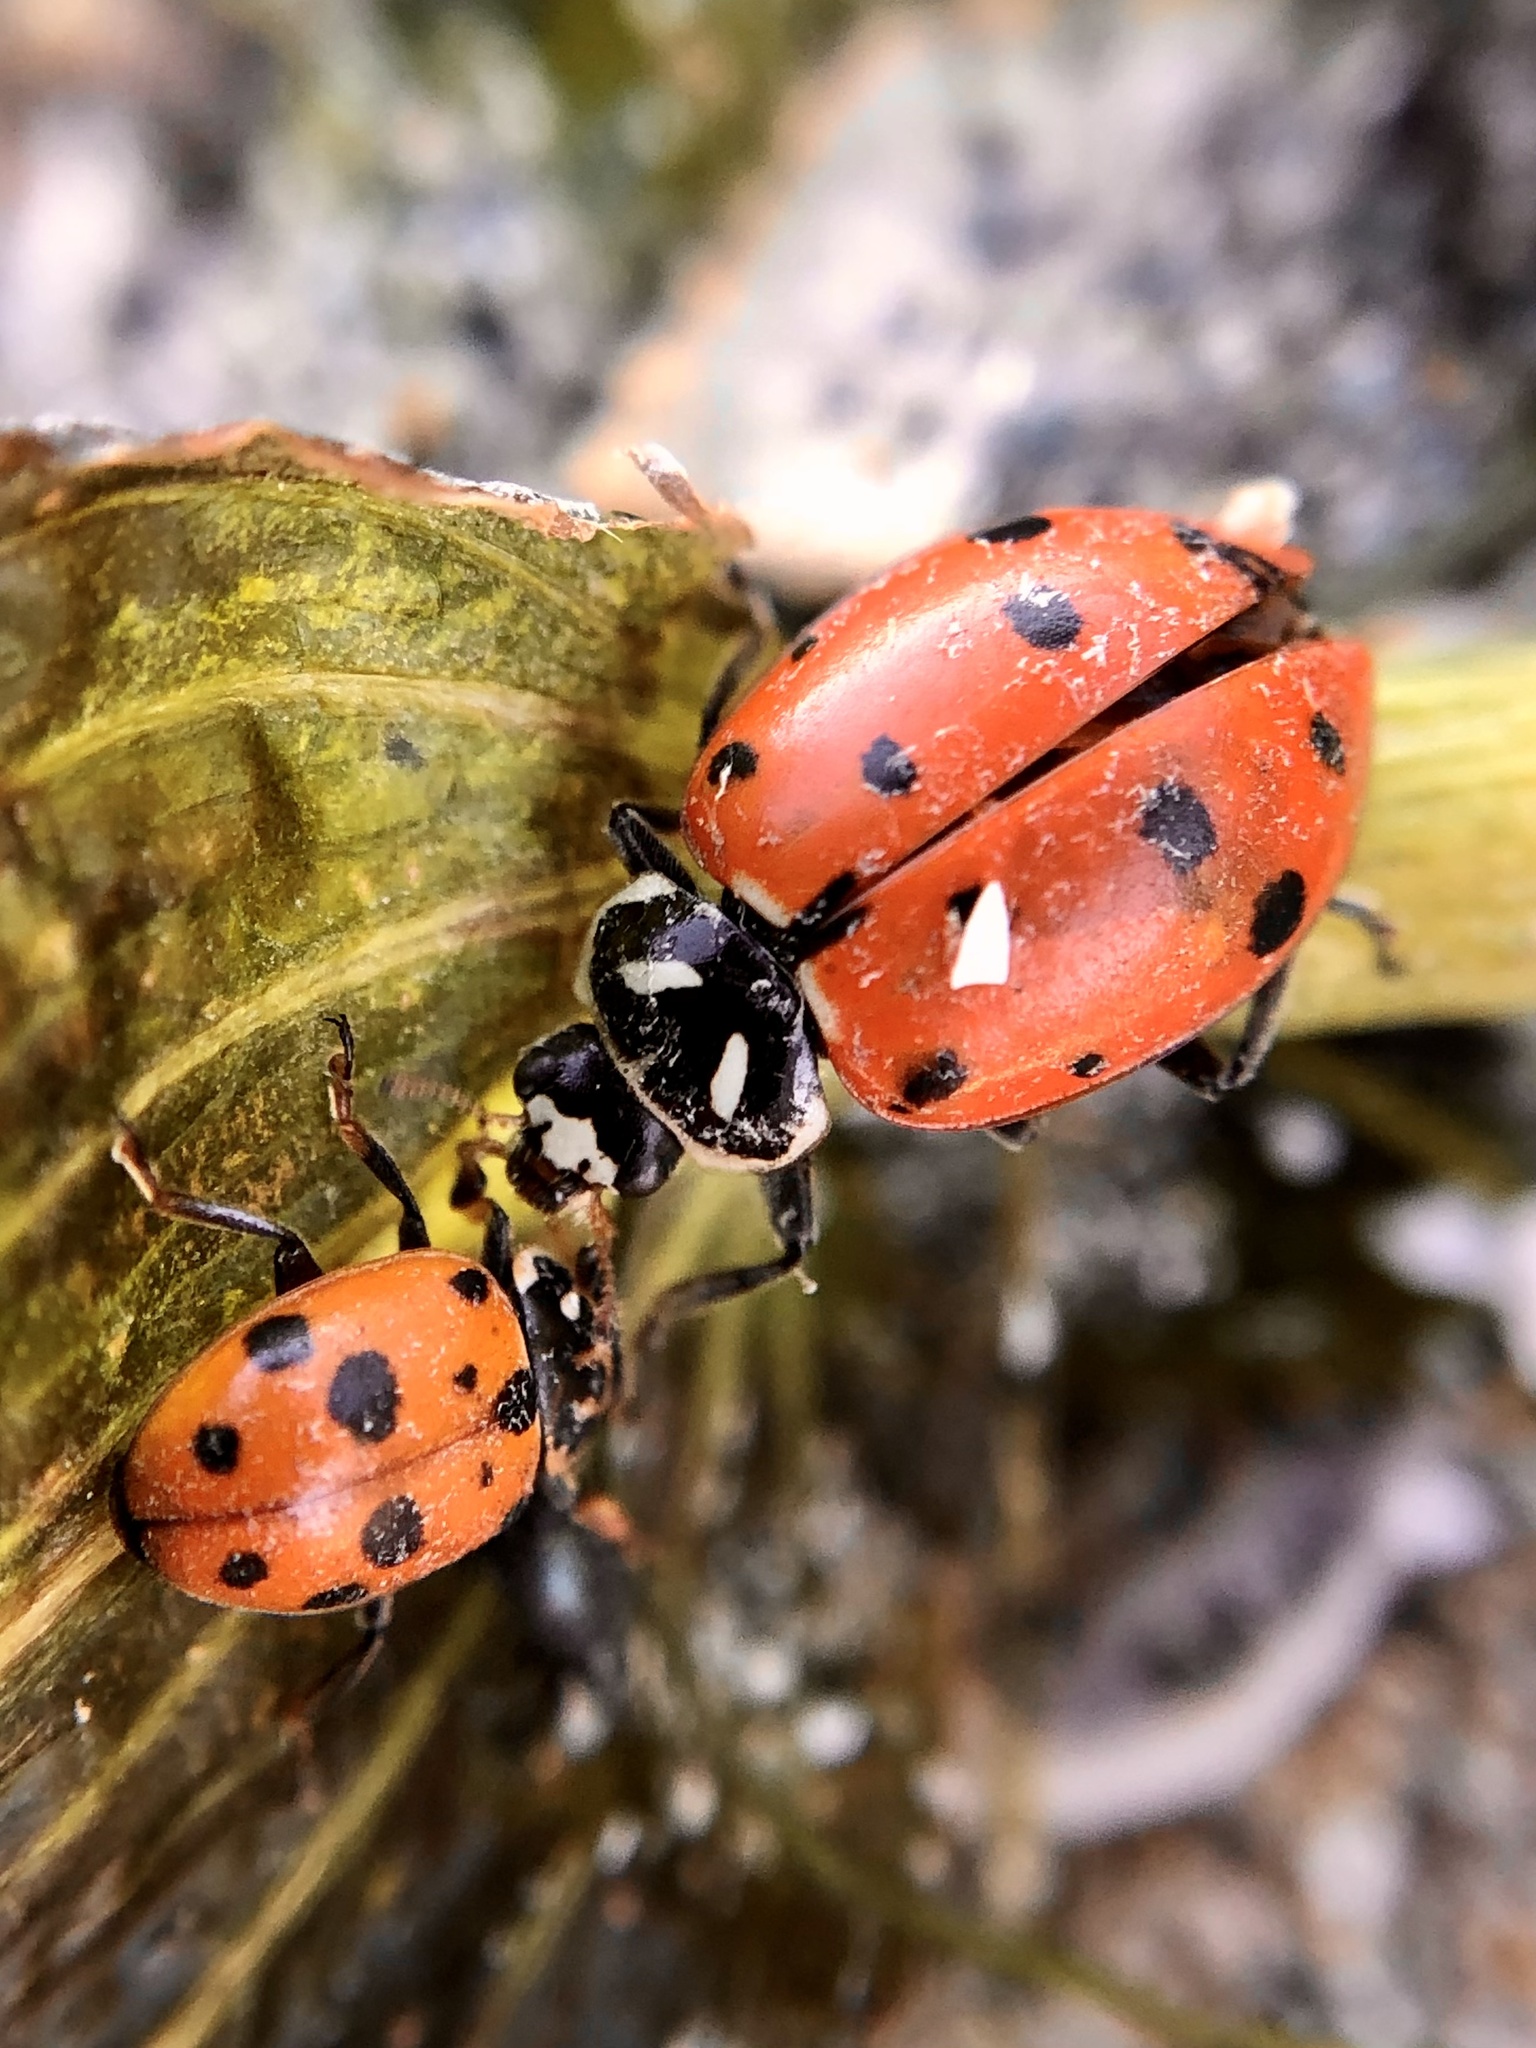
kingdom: Animalia
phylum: Arthropoda
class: Insecta
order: Coleoptera
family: Coccinellidae
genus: Hippodamia
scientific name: Hippodamia convergens
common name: Convergent lady beetle
